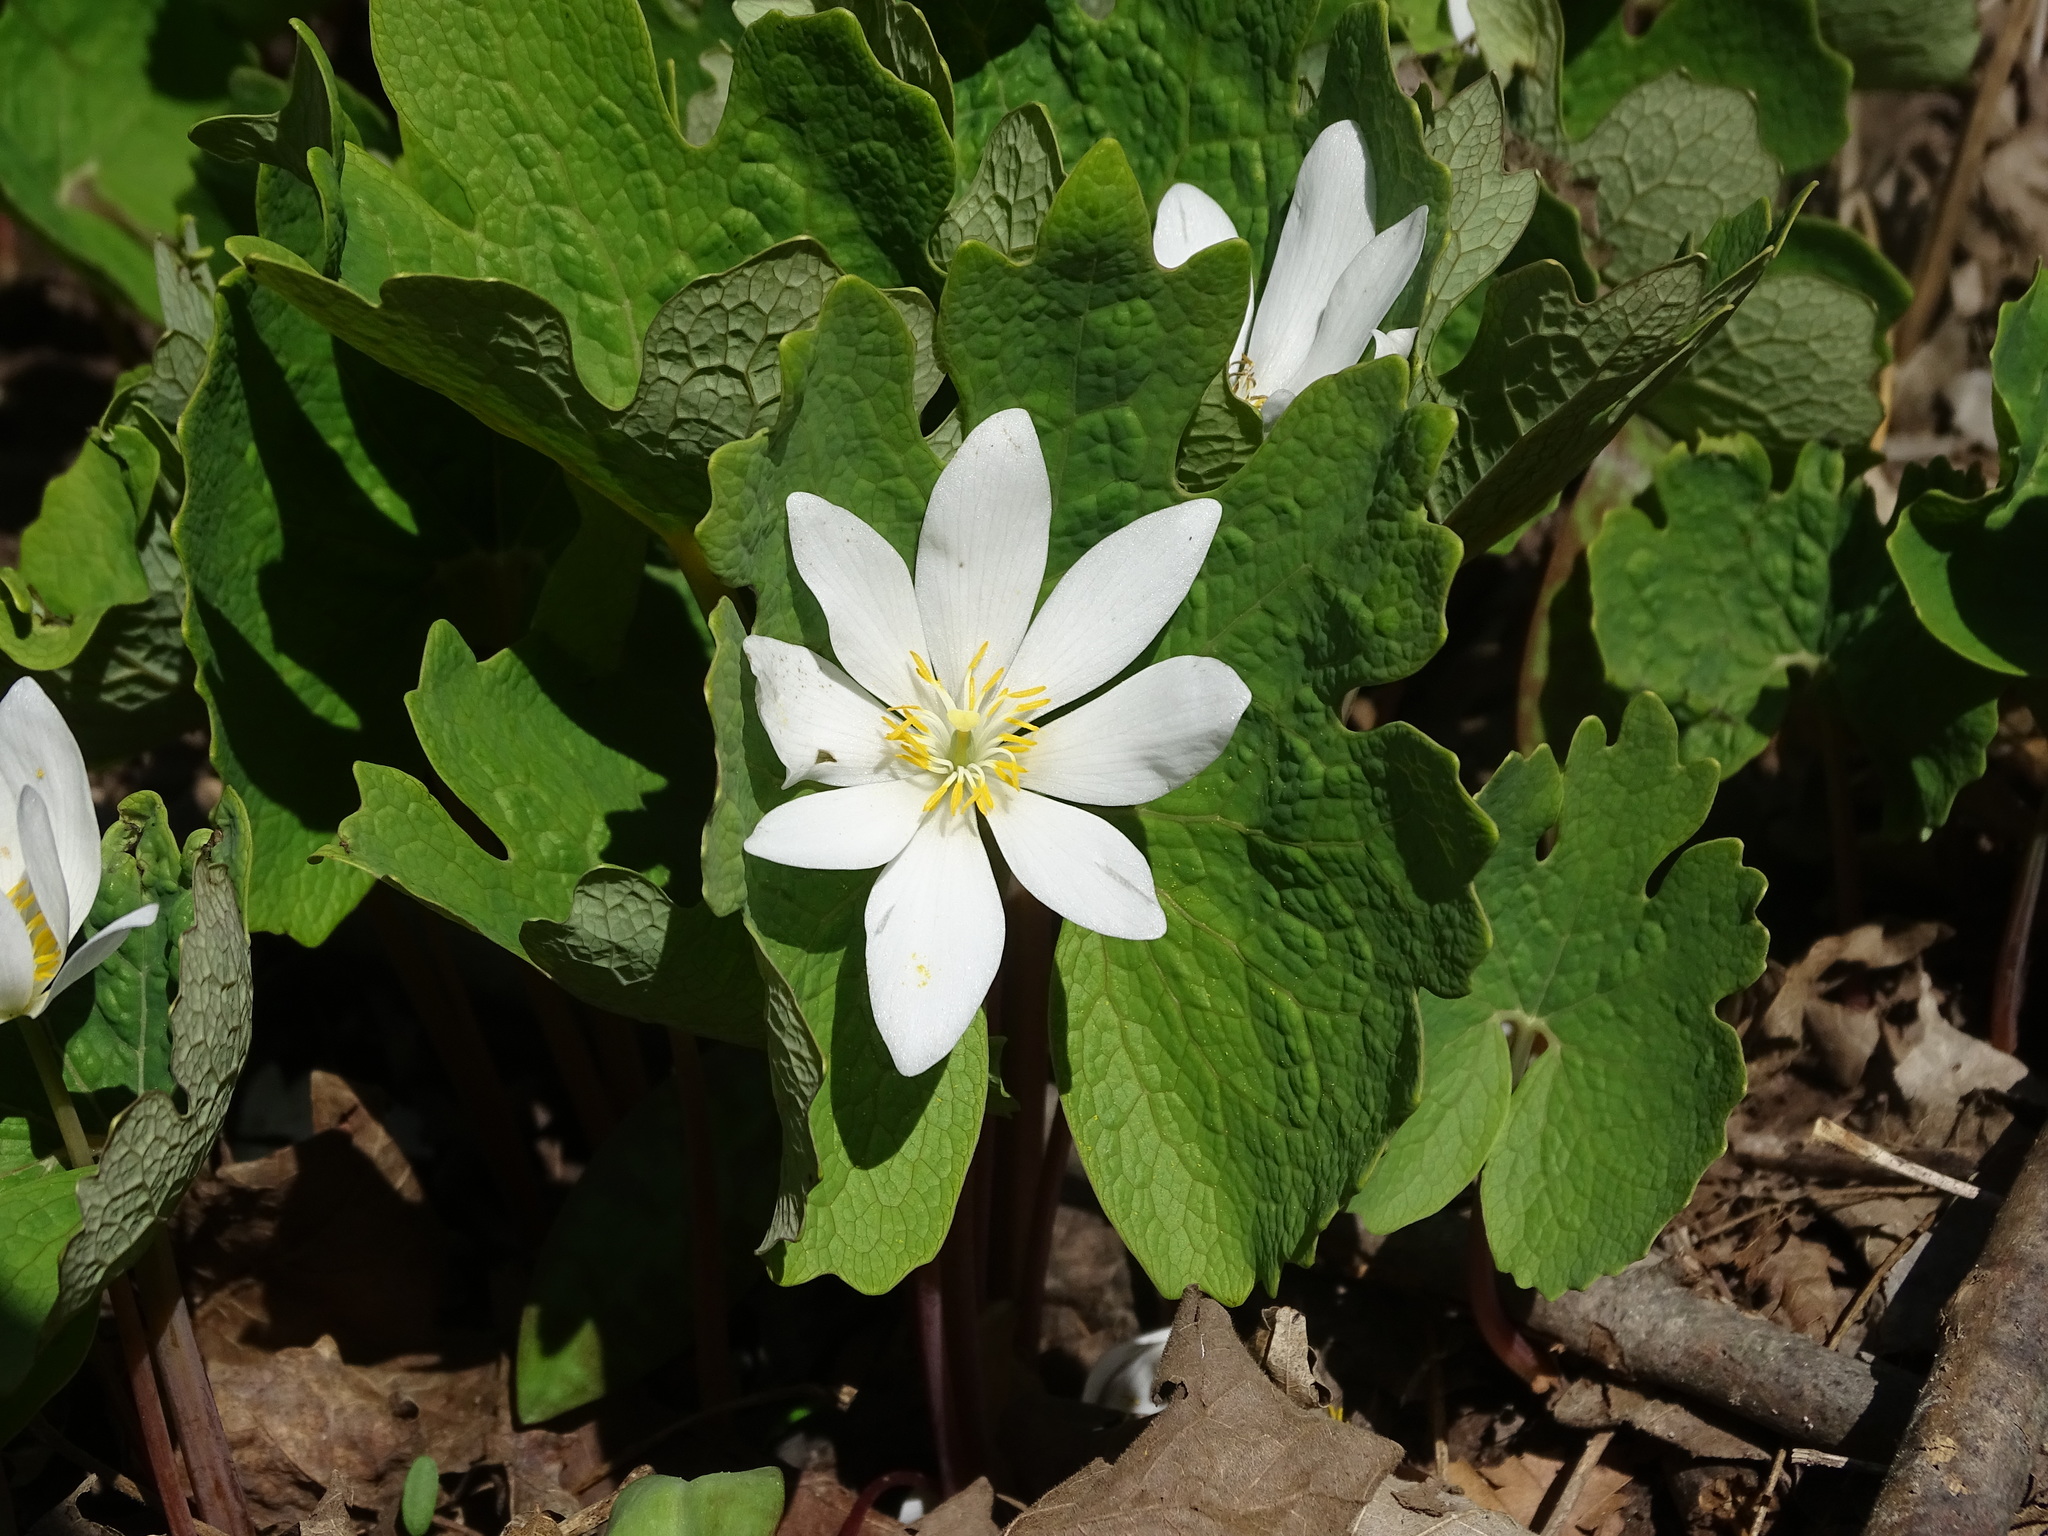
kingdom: Plantae
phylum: Tracheophyta
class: Magnoliopsida
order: Ranunculales
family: Papaveraceae
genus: Sanguinaria
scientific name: Sanguinaria canadensis
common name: Bloodroot
